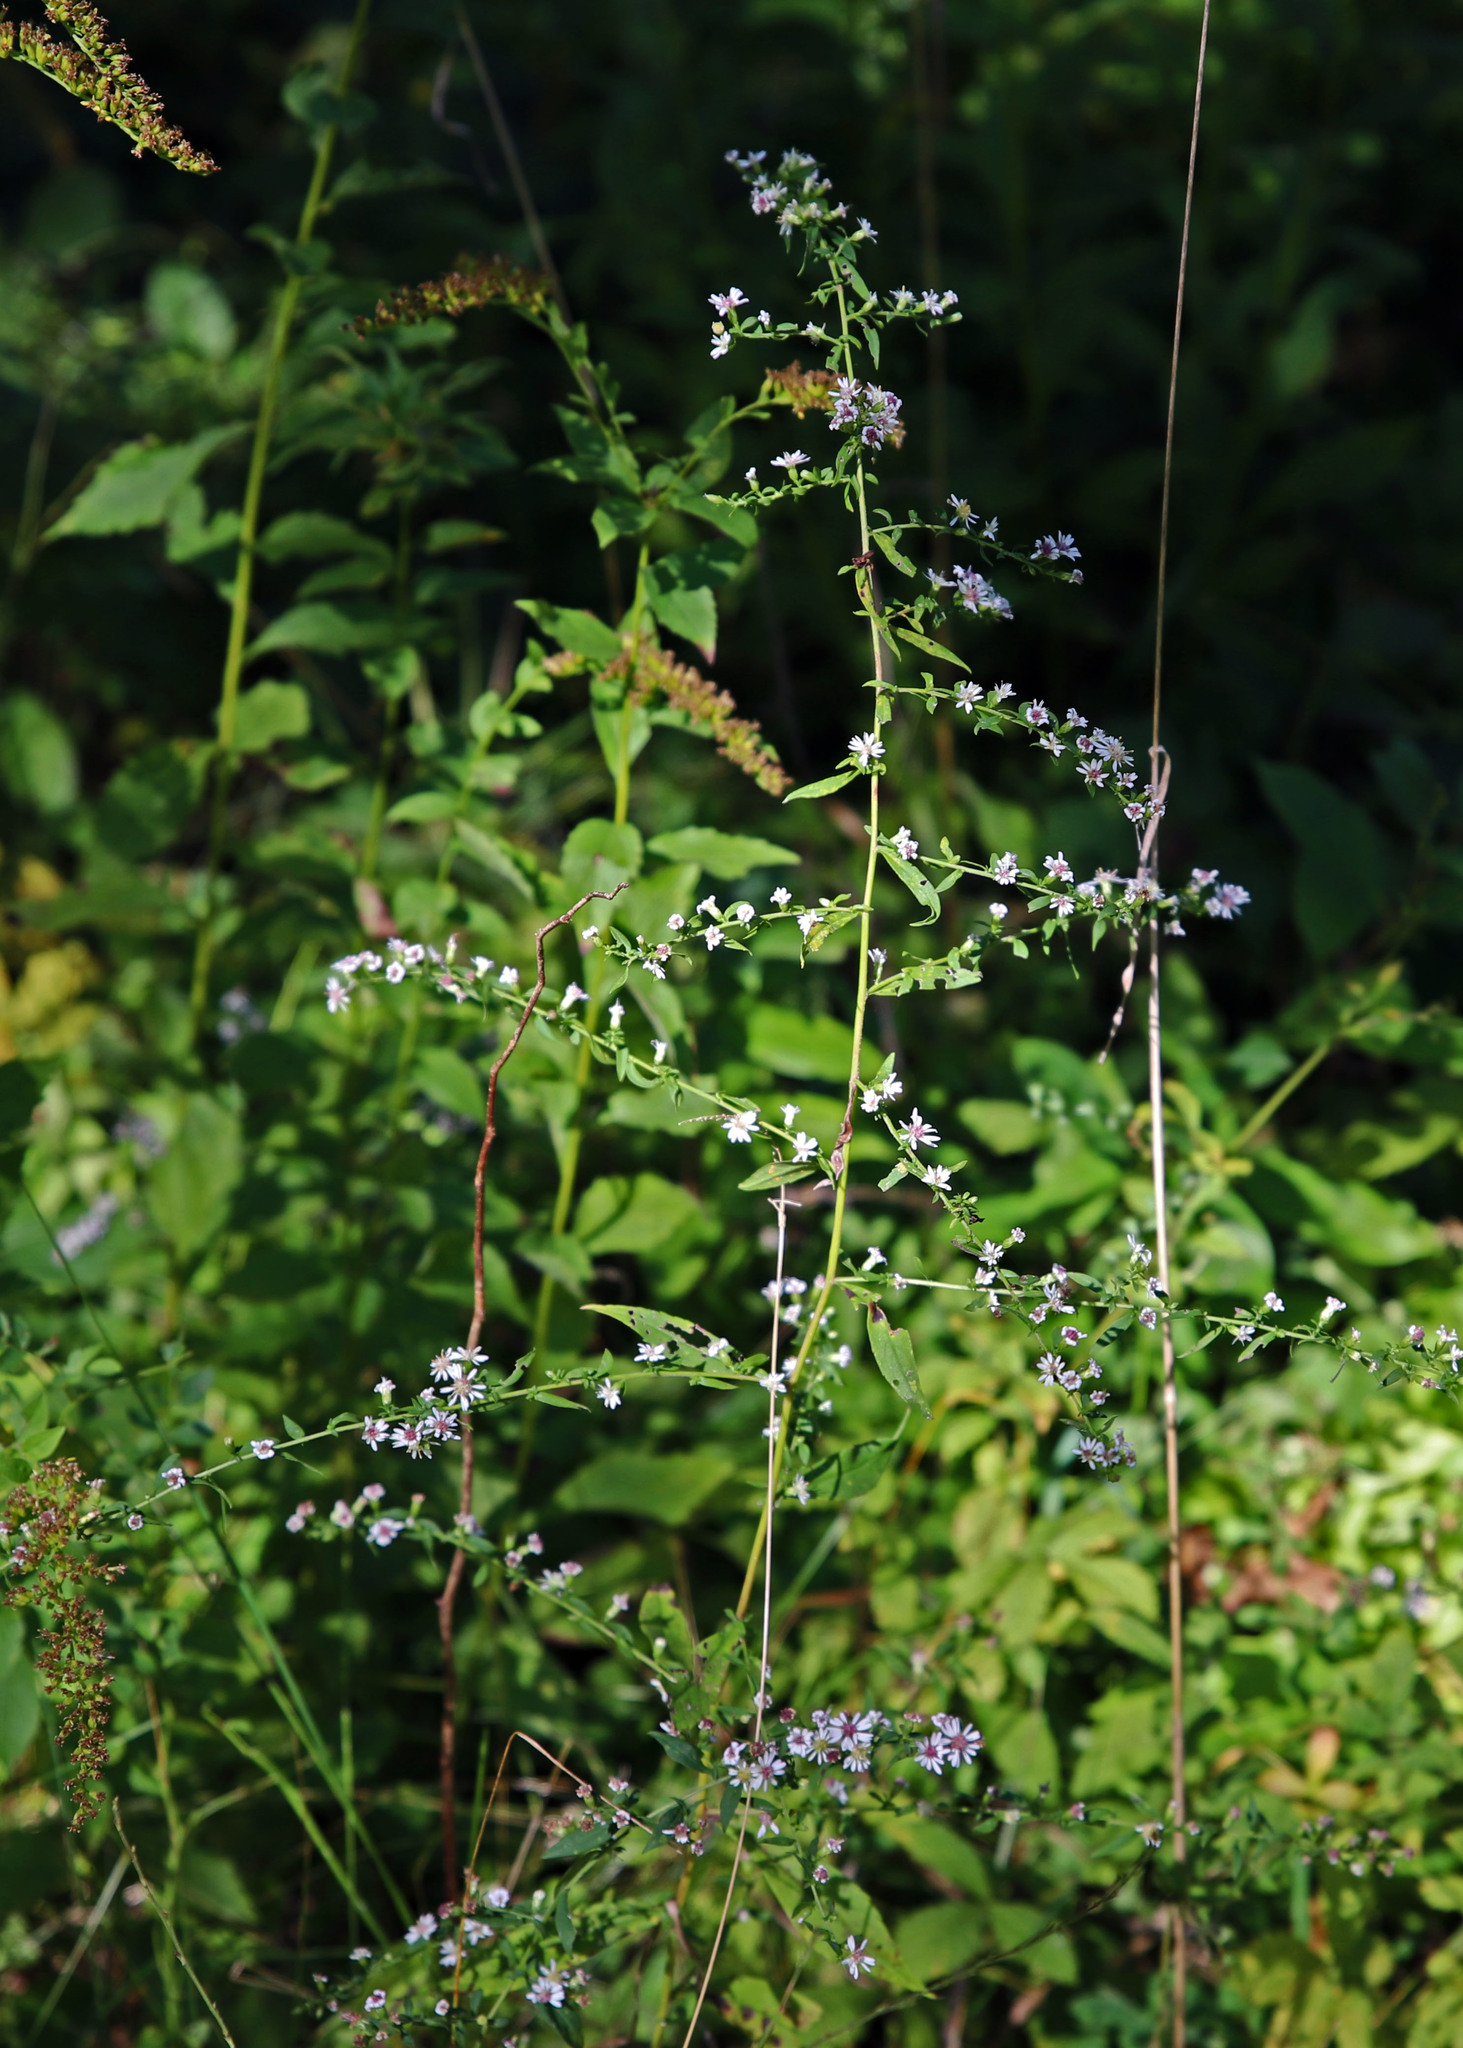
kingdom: Plantae
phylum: Tracheophyta
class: Magnoliopsida
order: Asterales
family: Asteraceae
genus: Symphyotrichum
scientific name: Symphyotrichum lateriflorum
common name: Calico aster
